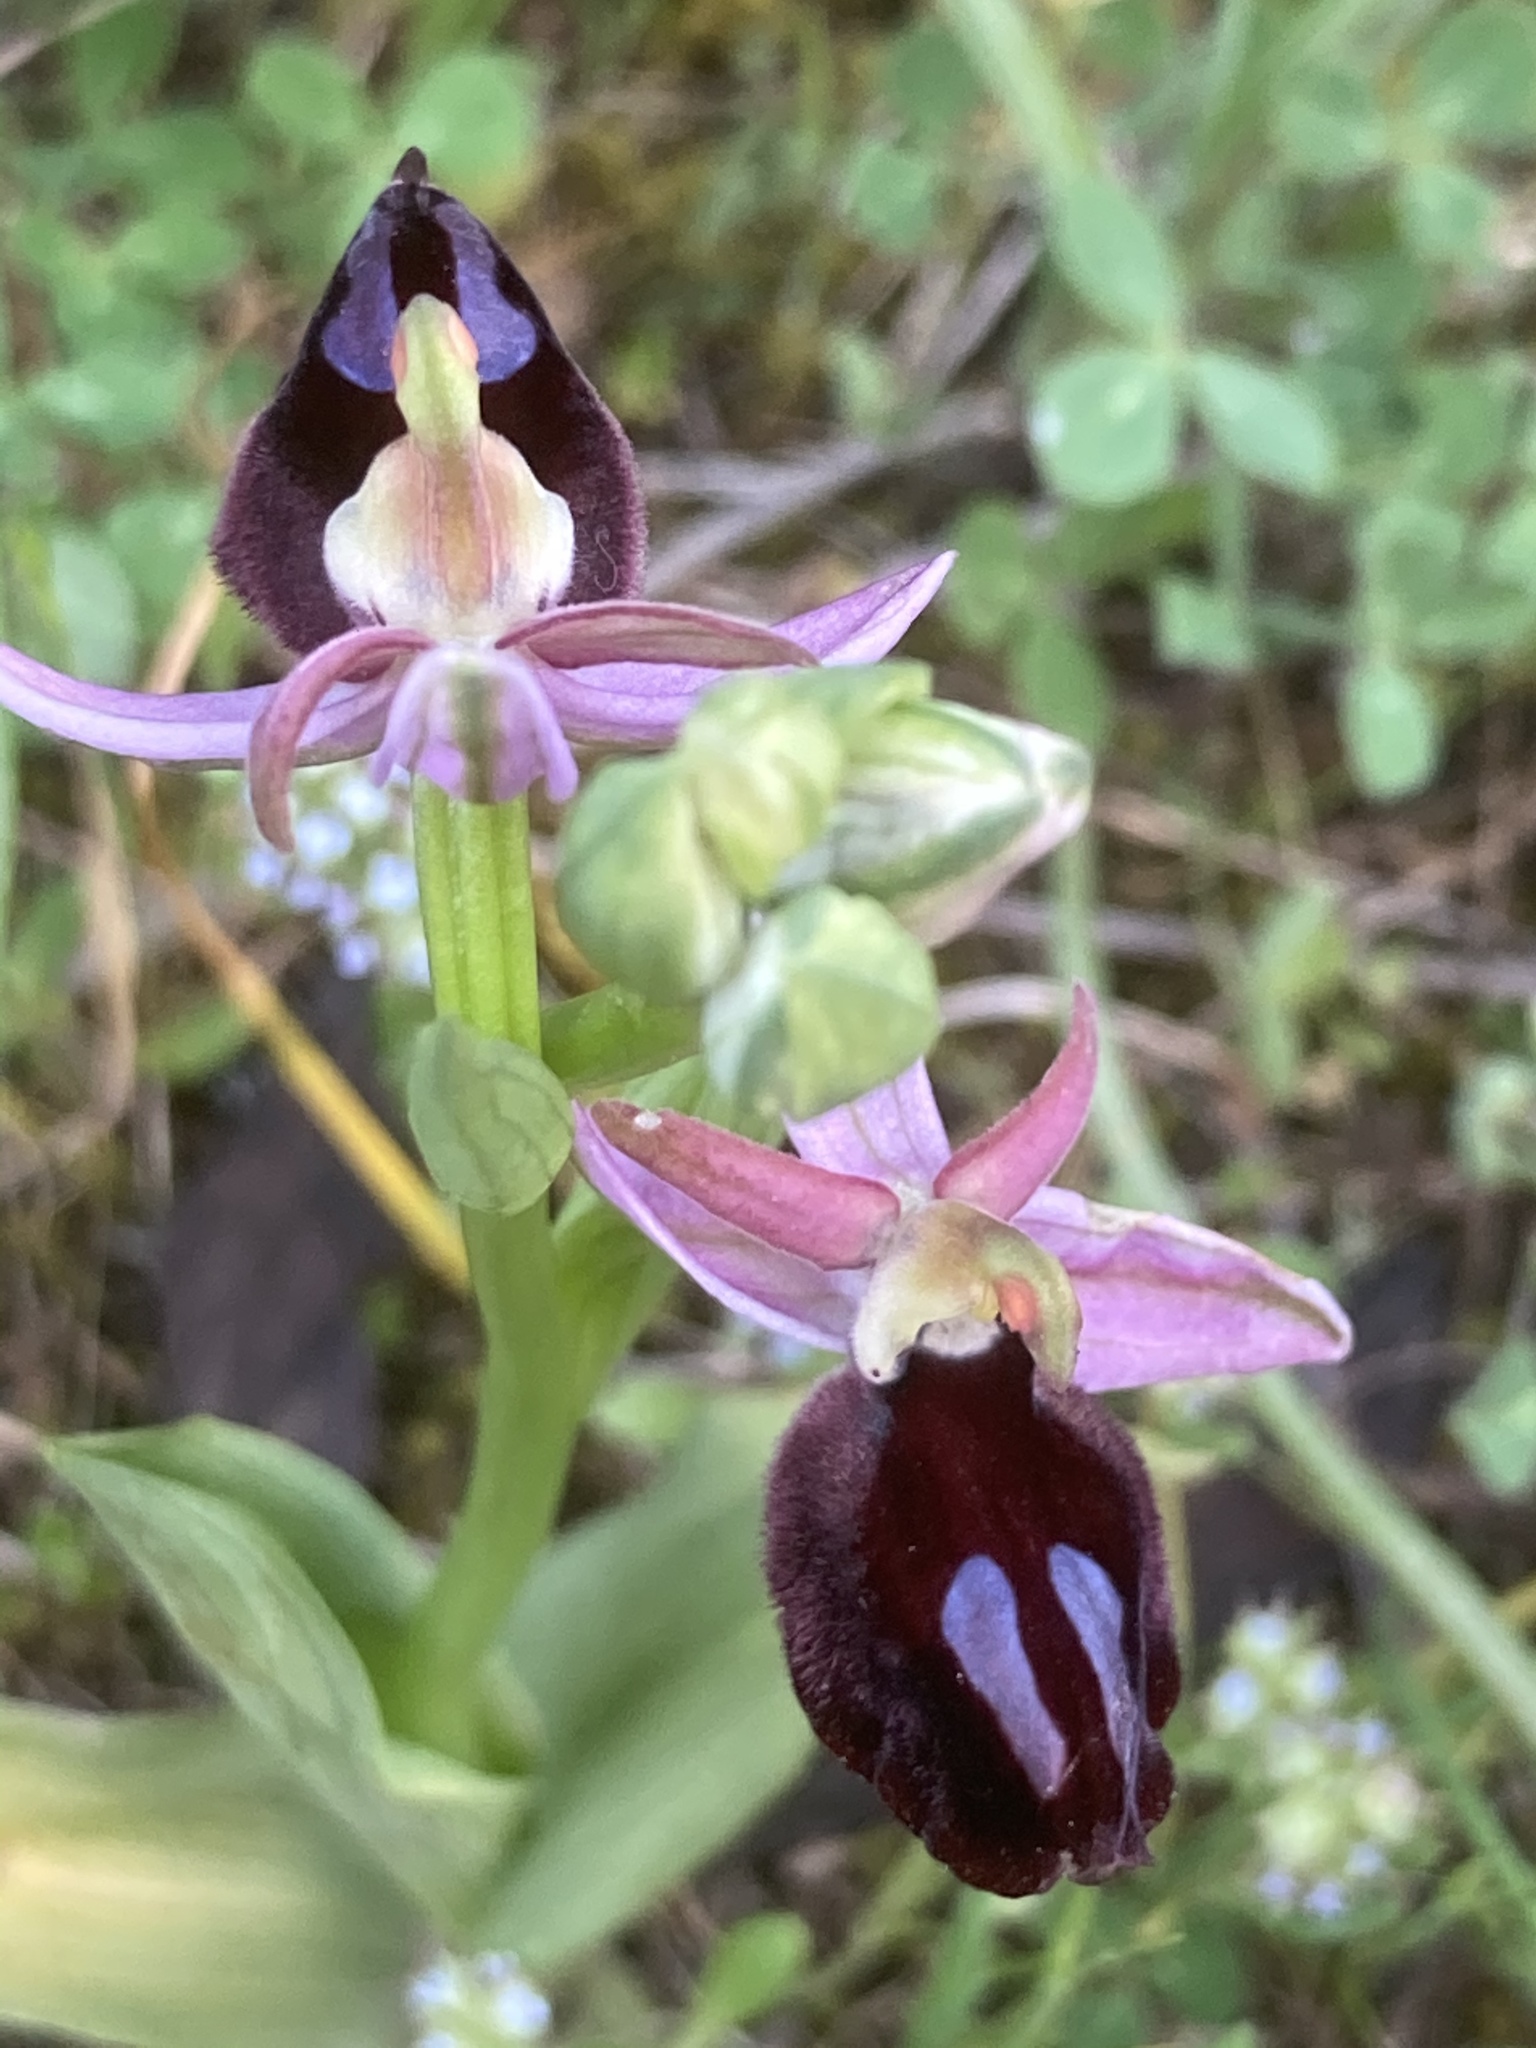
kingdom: Plantae
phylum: Tracheophyta
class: Liliopsida
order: Asparagales
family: Orchidaceae
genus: Ophrys
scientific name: Ophrys ferrum-equinum
